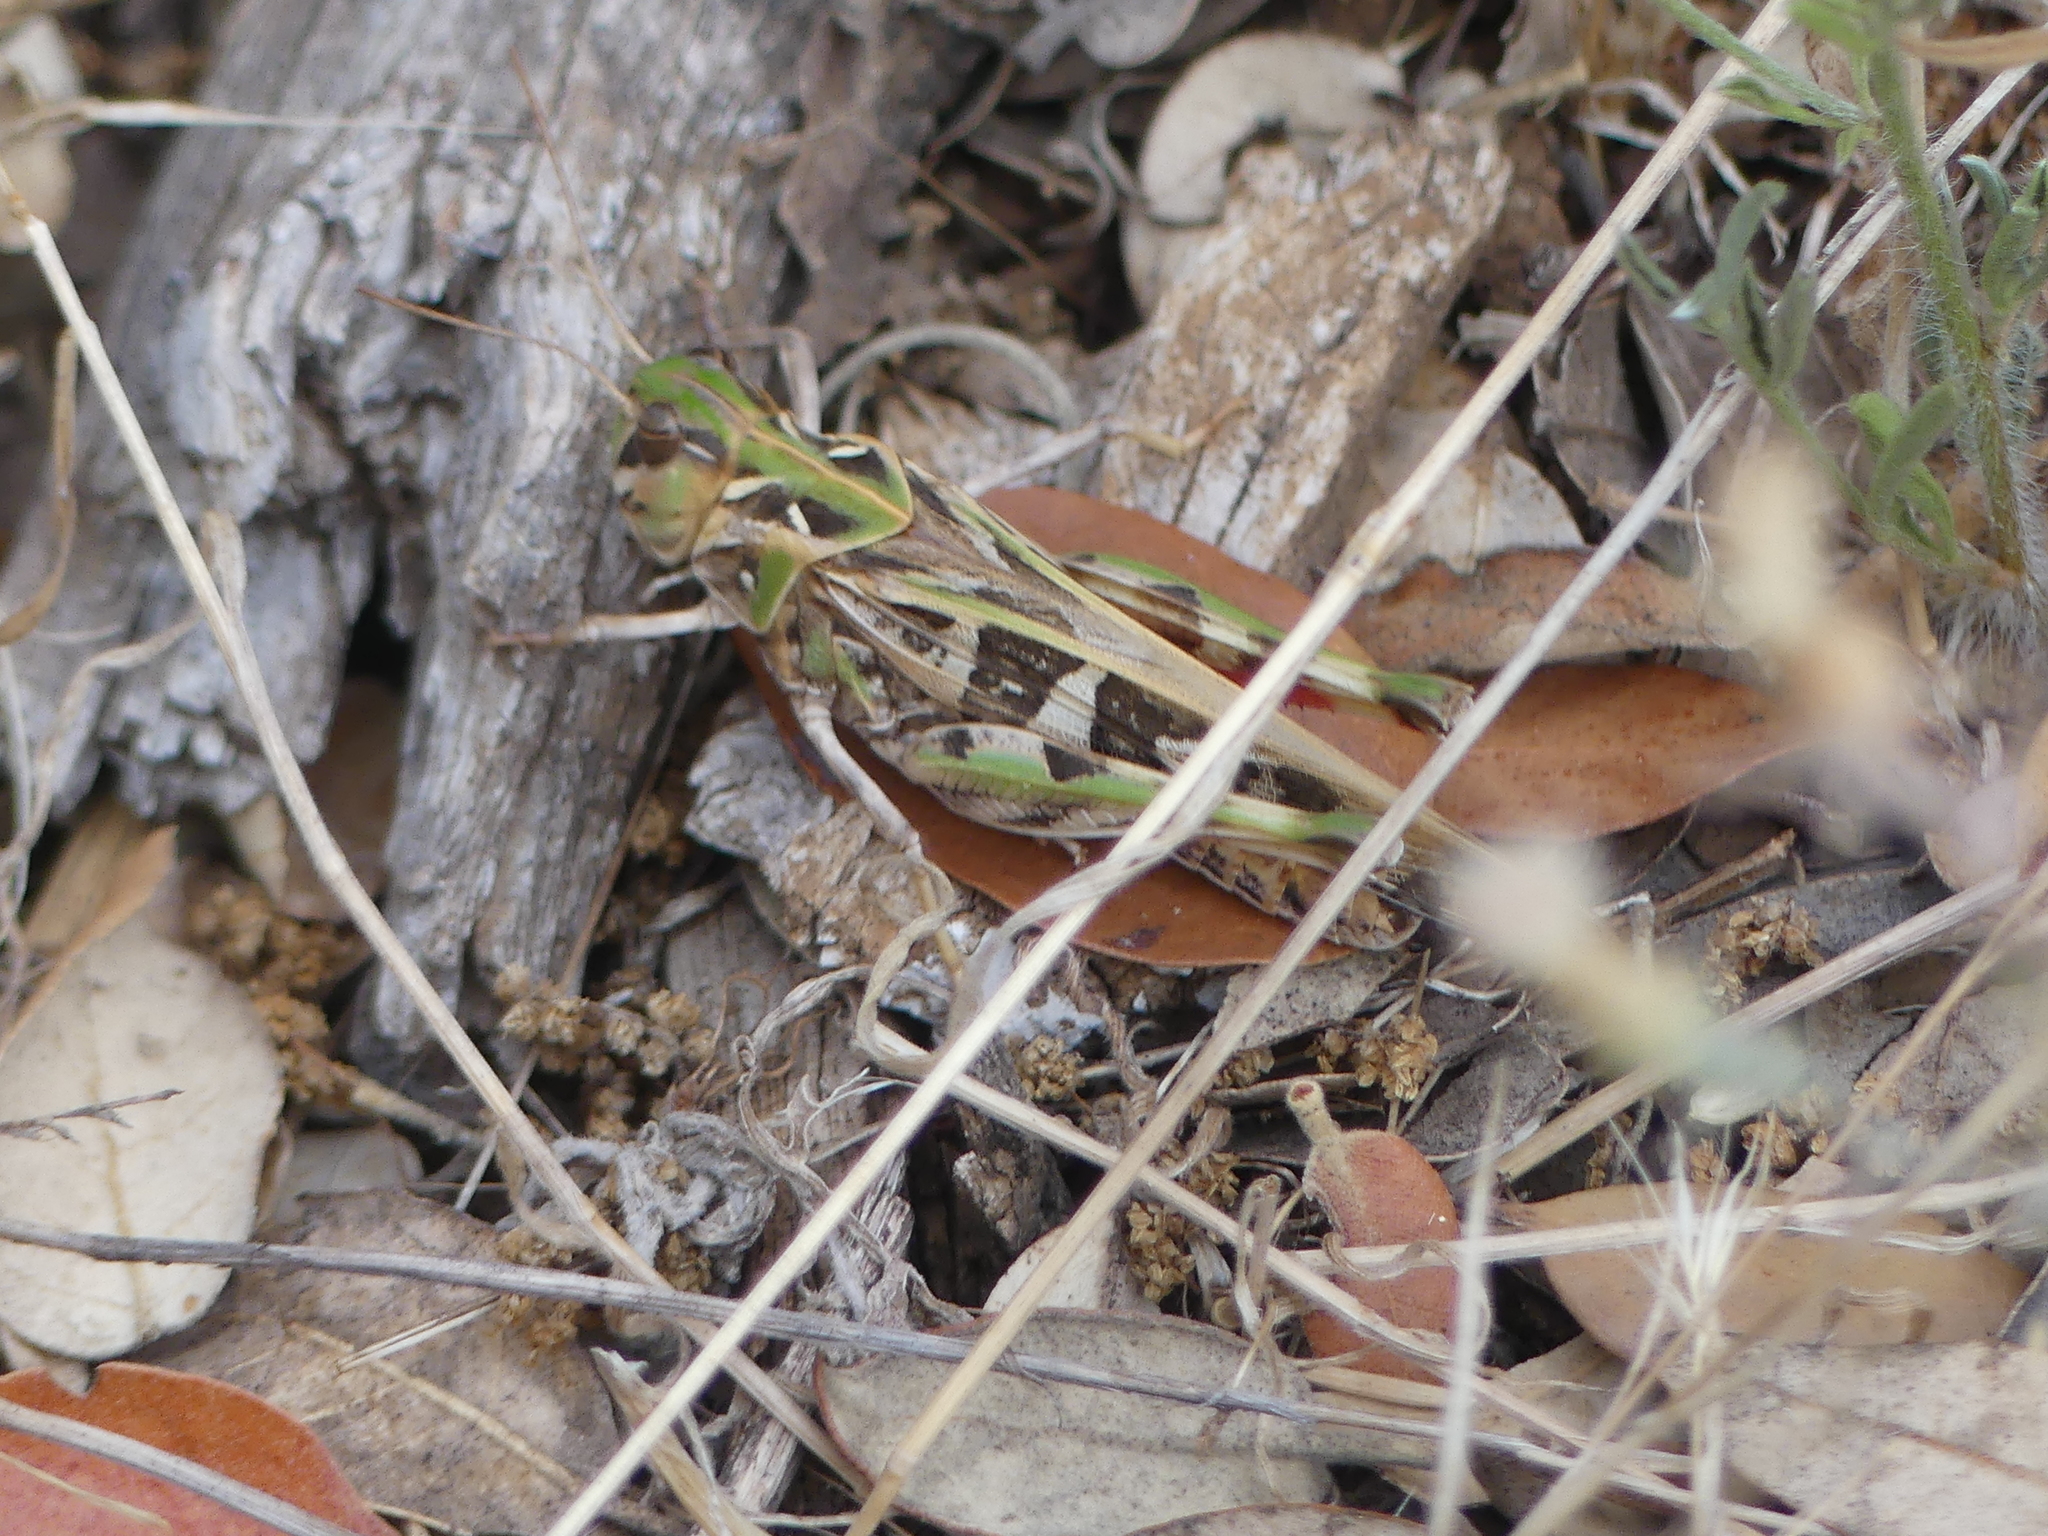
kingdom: Animalia
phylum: Arthropoda
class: Insecta
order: Orthoptera
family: Acrididae
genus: Oedaleus
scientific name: Oedaleus decorus
